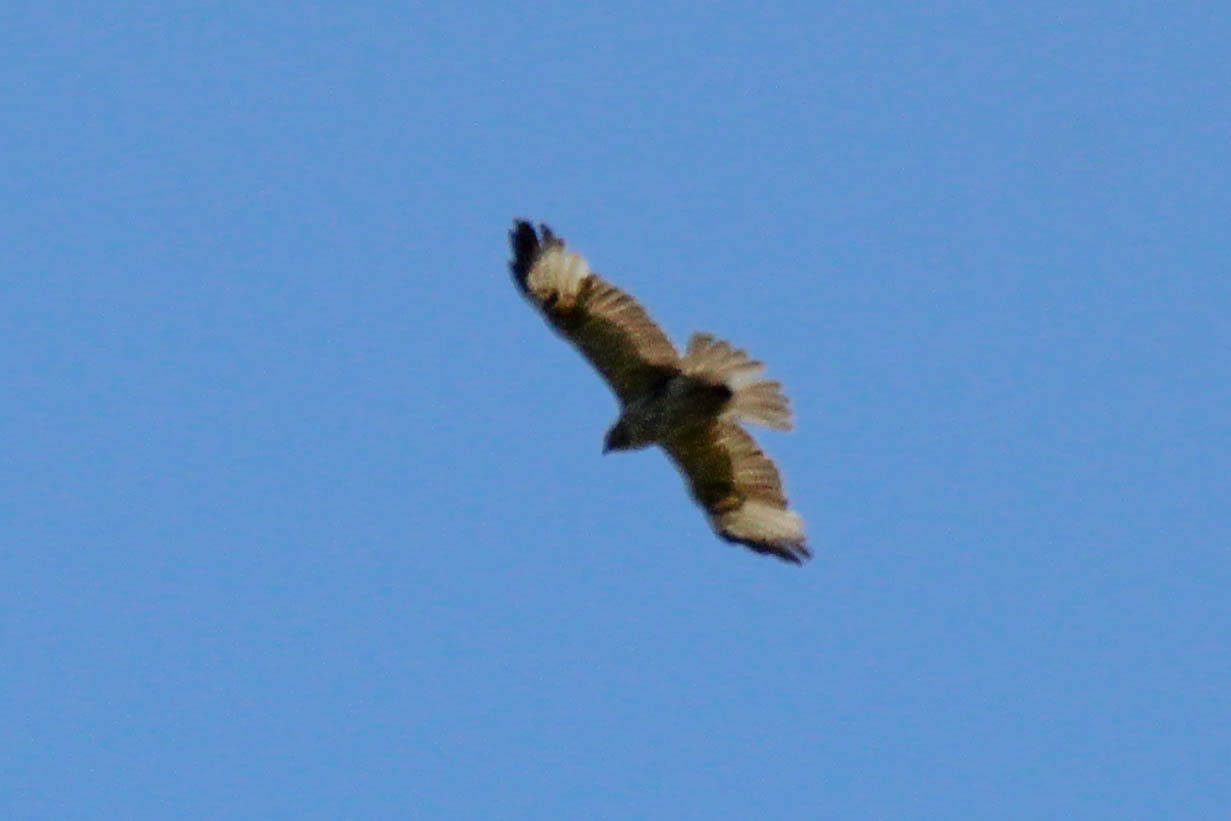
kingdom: Animalia
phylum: Chordata
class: Aves
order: Accipitriformes
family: Accipitridae
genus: Buteo
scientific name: Buteo japonicus
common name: Eastern buzzard
